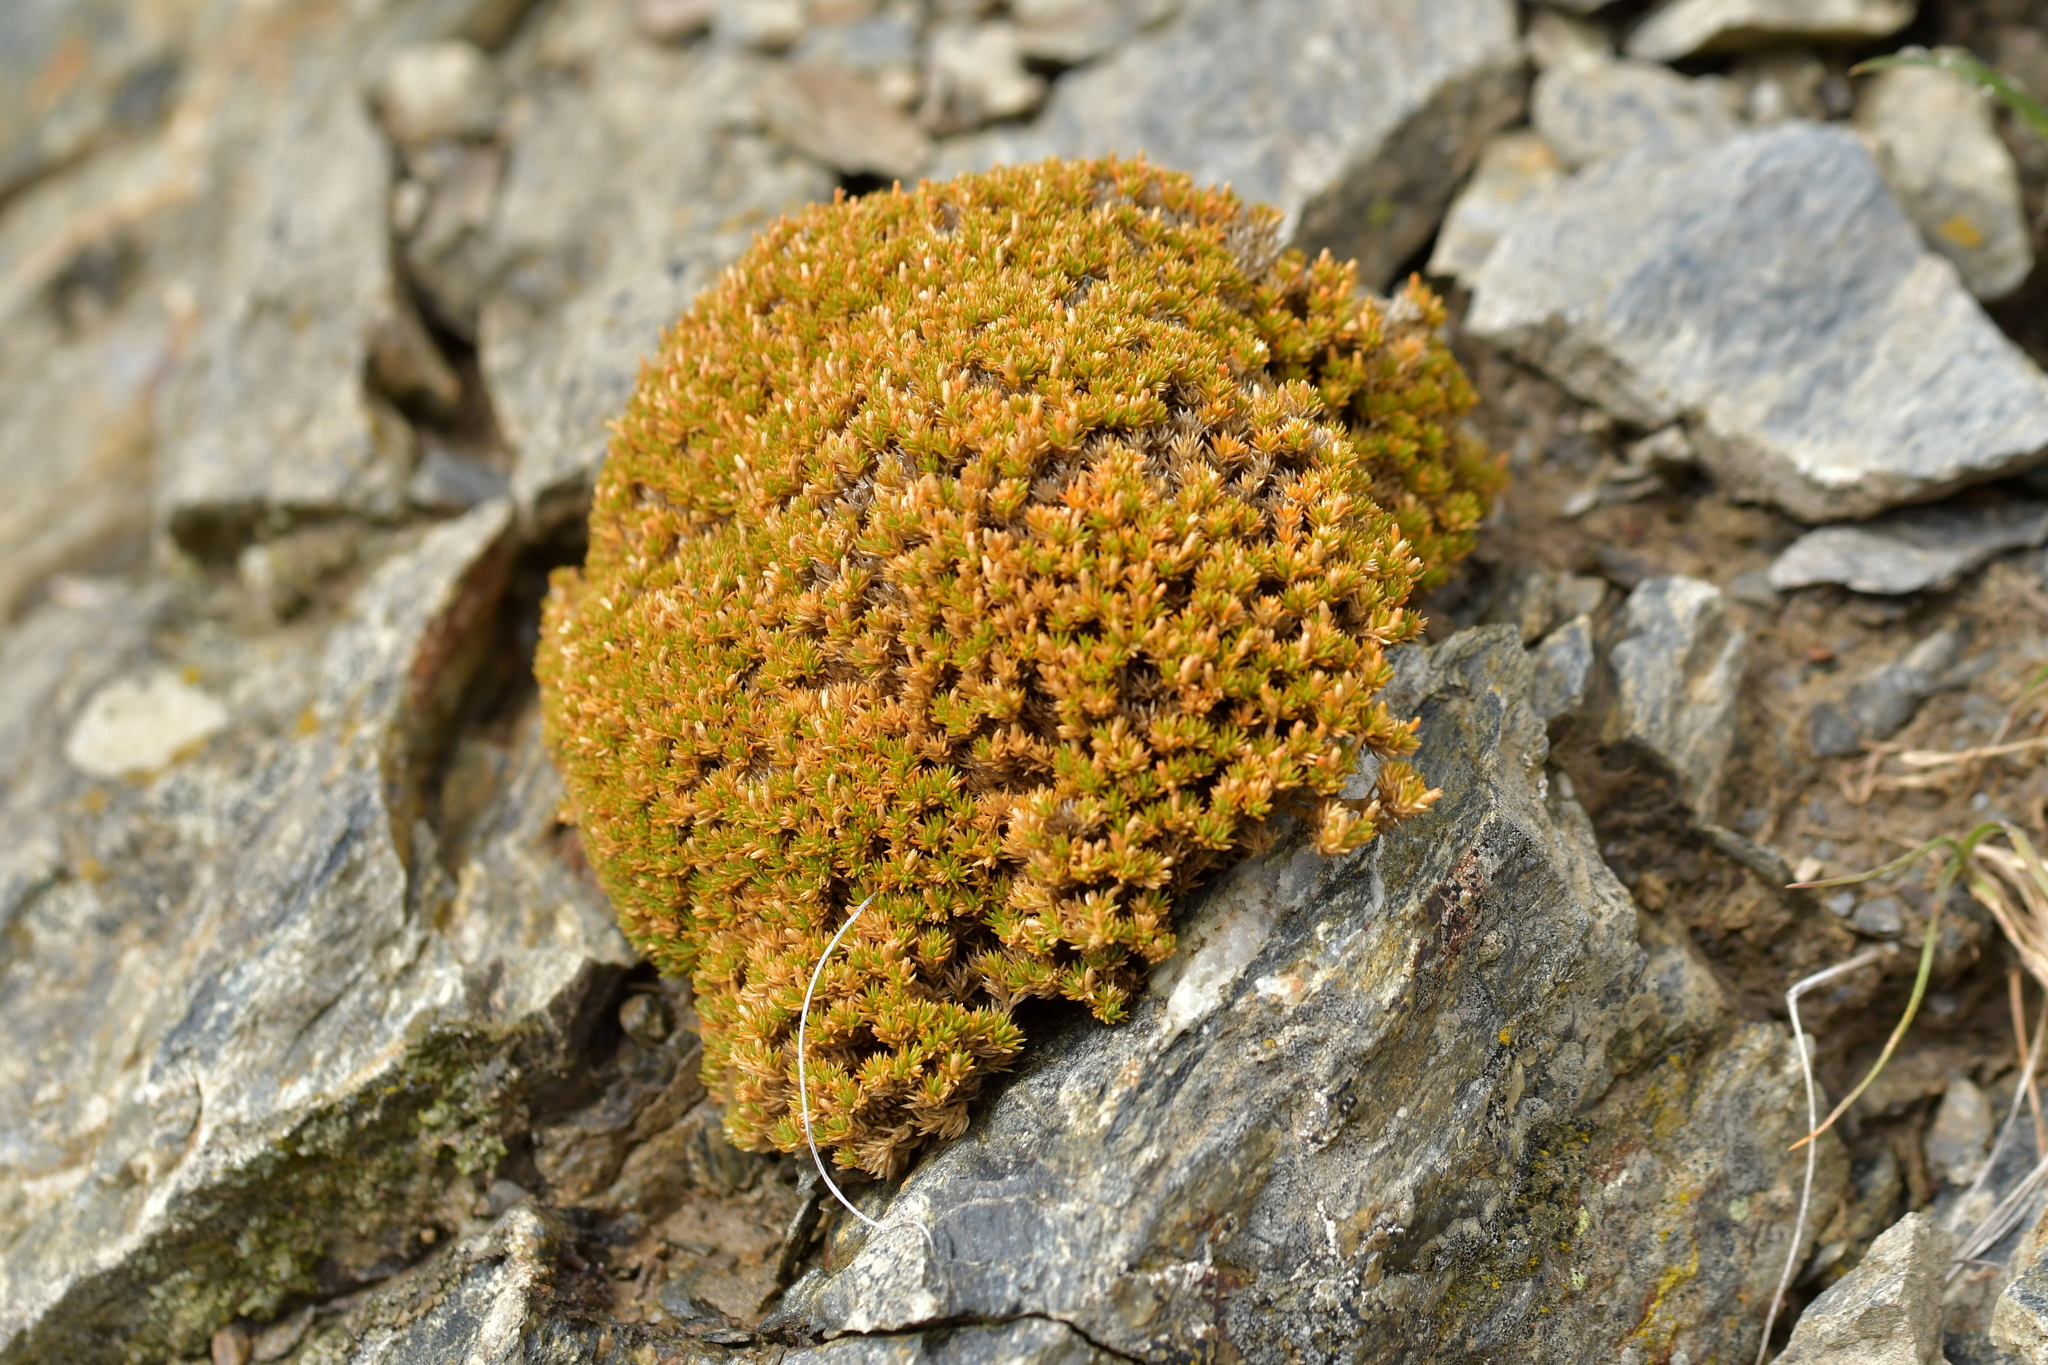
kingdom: Plantae
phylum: Tracheophyta
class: Magnoliopsida
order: Caryophyllales
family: Caryophyllaceae
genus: Scleranthus
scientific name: Scleranthus uniflorus
